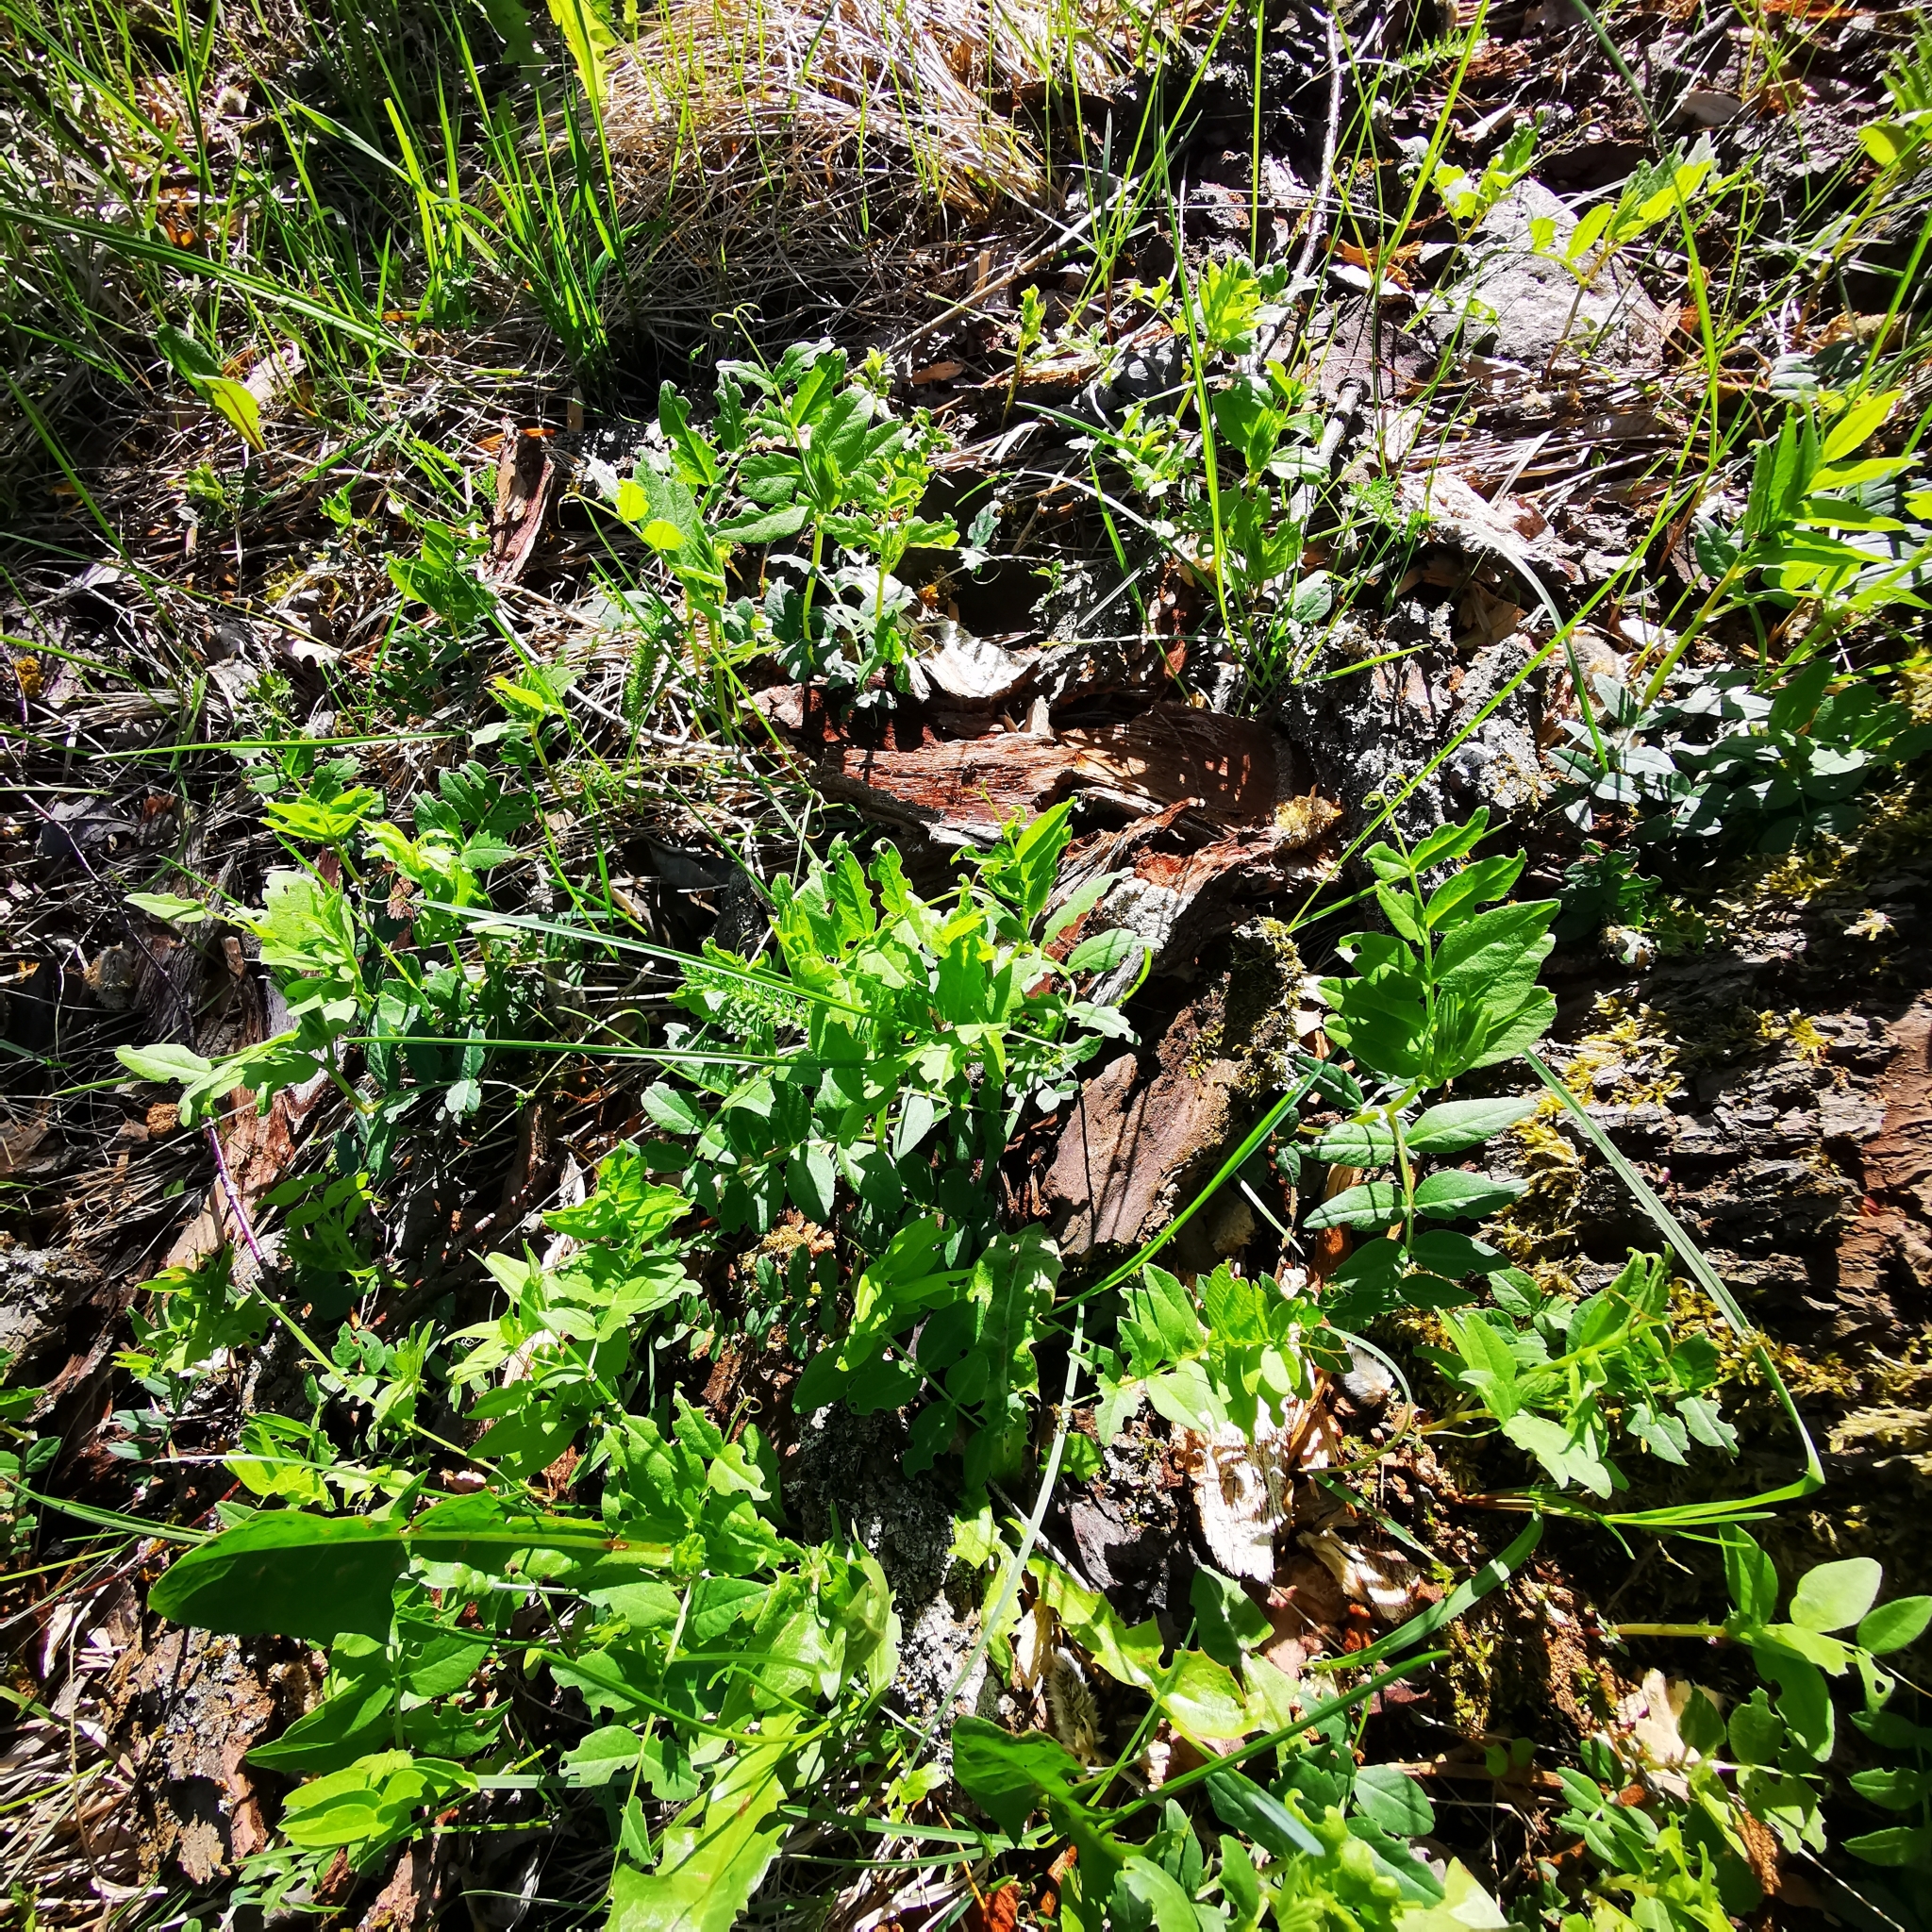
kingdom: Plantae
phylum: Tracheophyta
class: Magnoliopsida
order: Fabales
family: Fabaceae
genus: Vicia
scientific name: Vicia sepium
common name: Bush vetch
